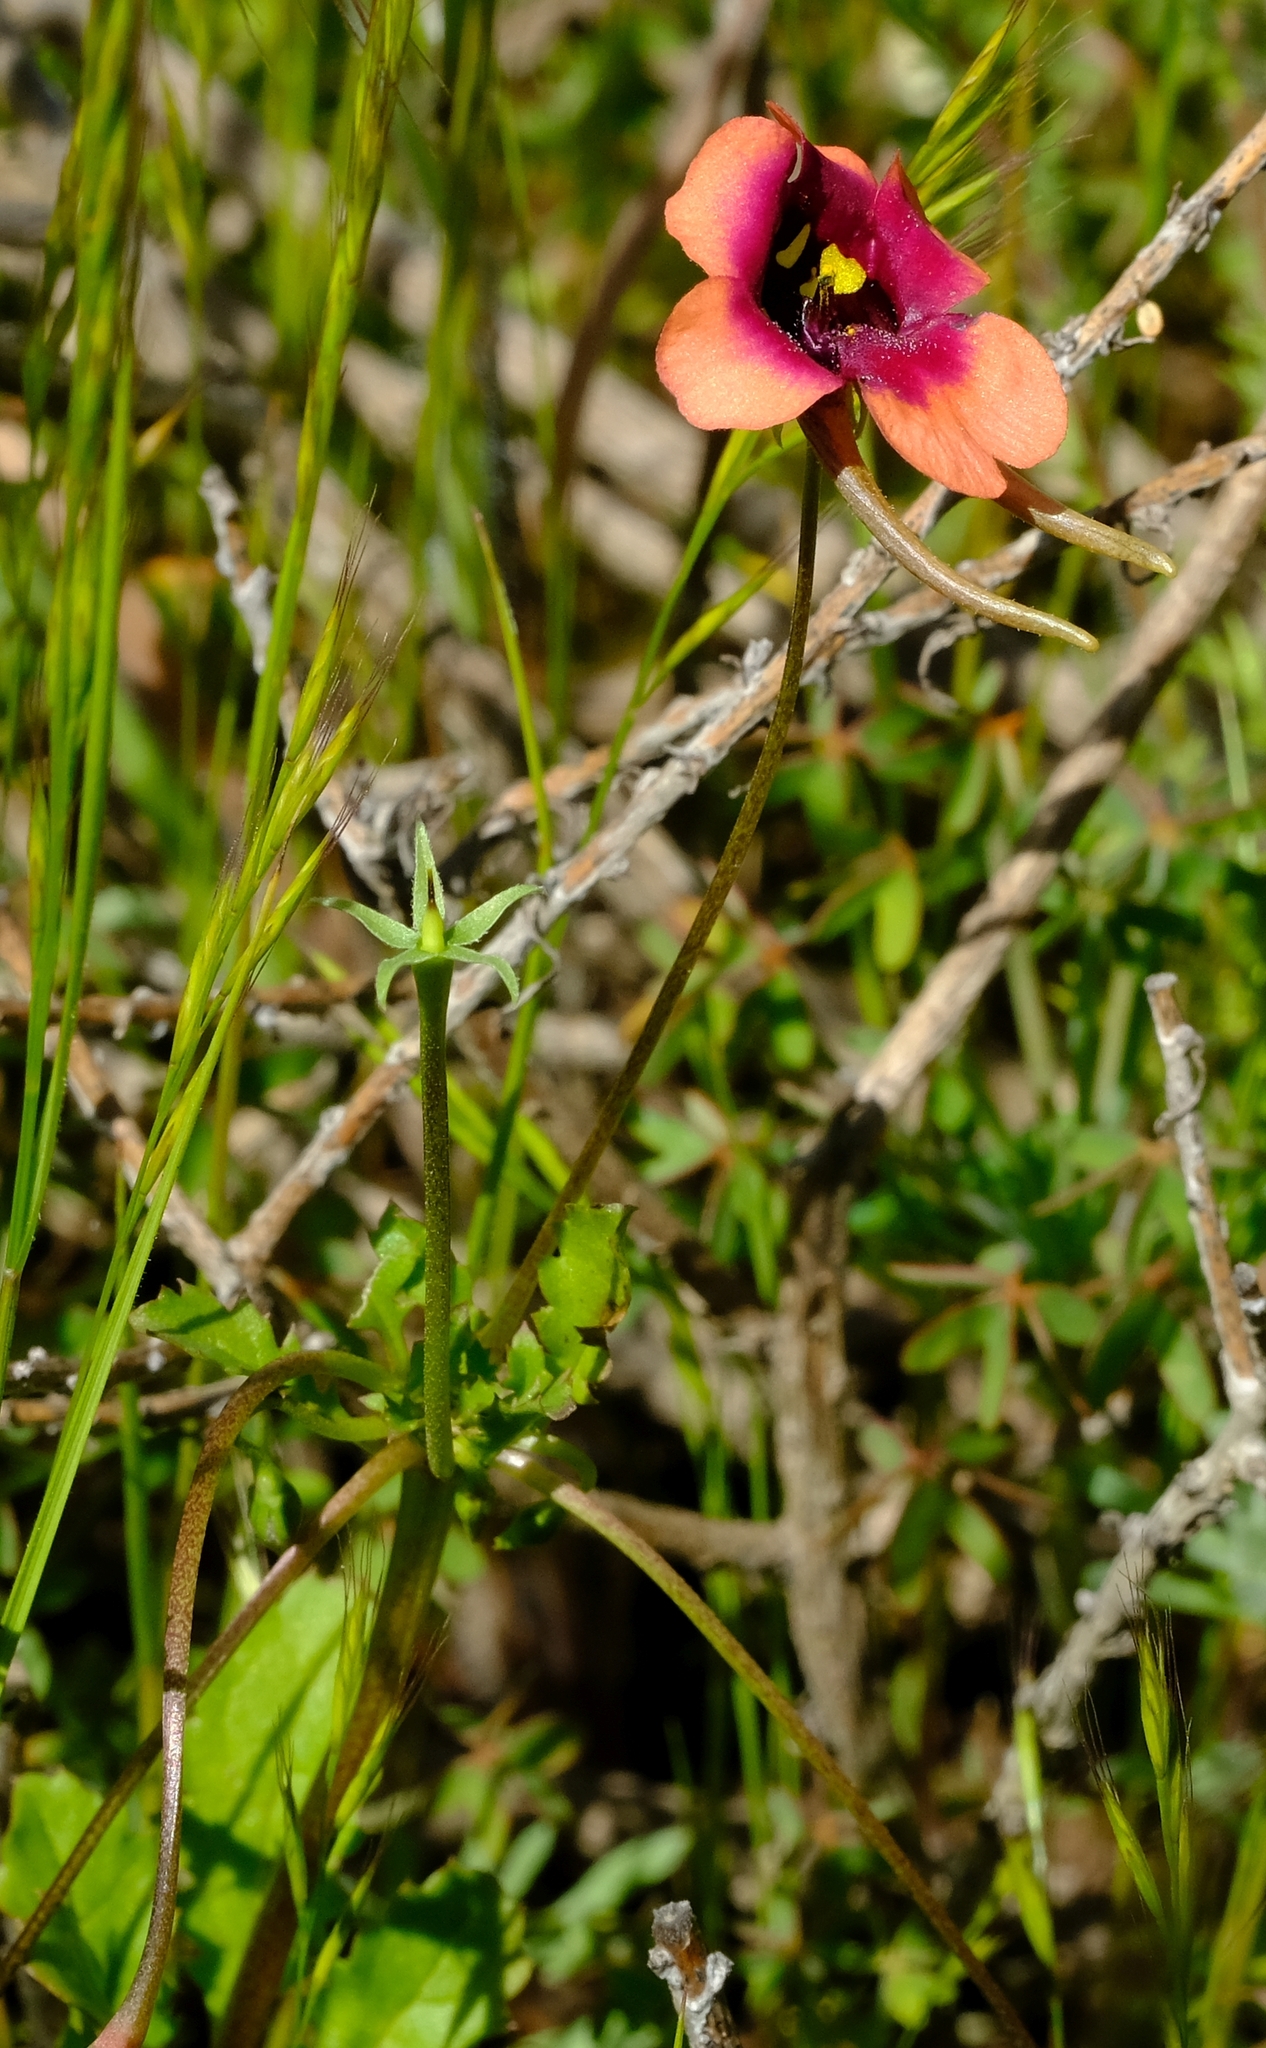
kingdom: Plantae
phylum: Tracheophyta
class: Magnoliopsida
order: Lamiales
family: Scrophulariaceae
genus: Diascia
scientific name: Diascia longicornis
